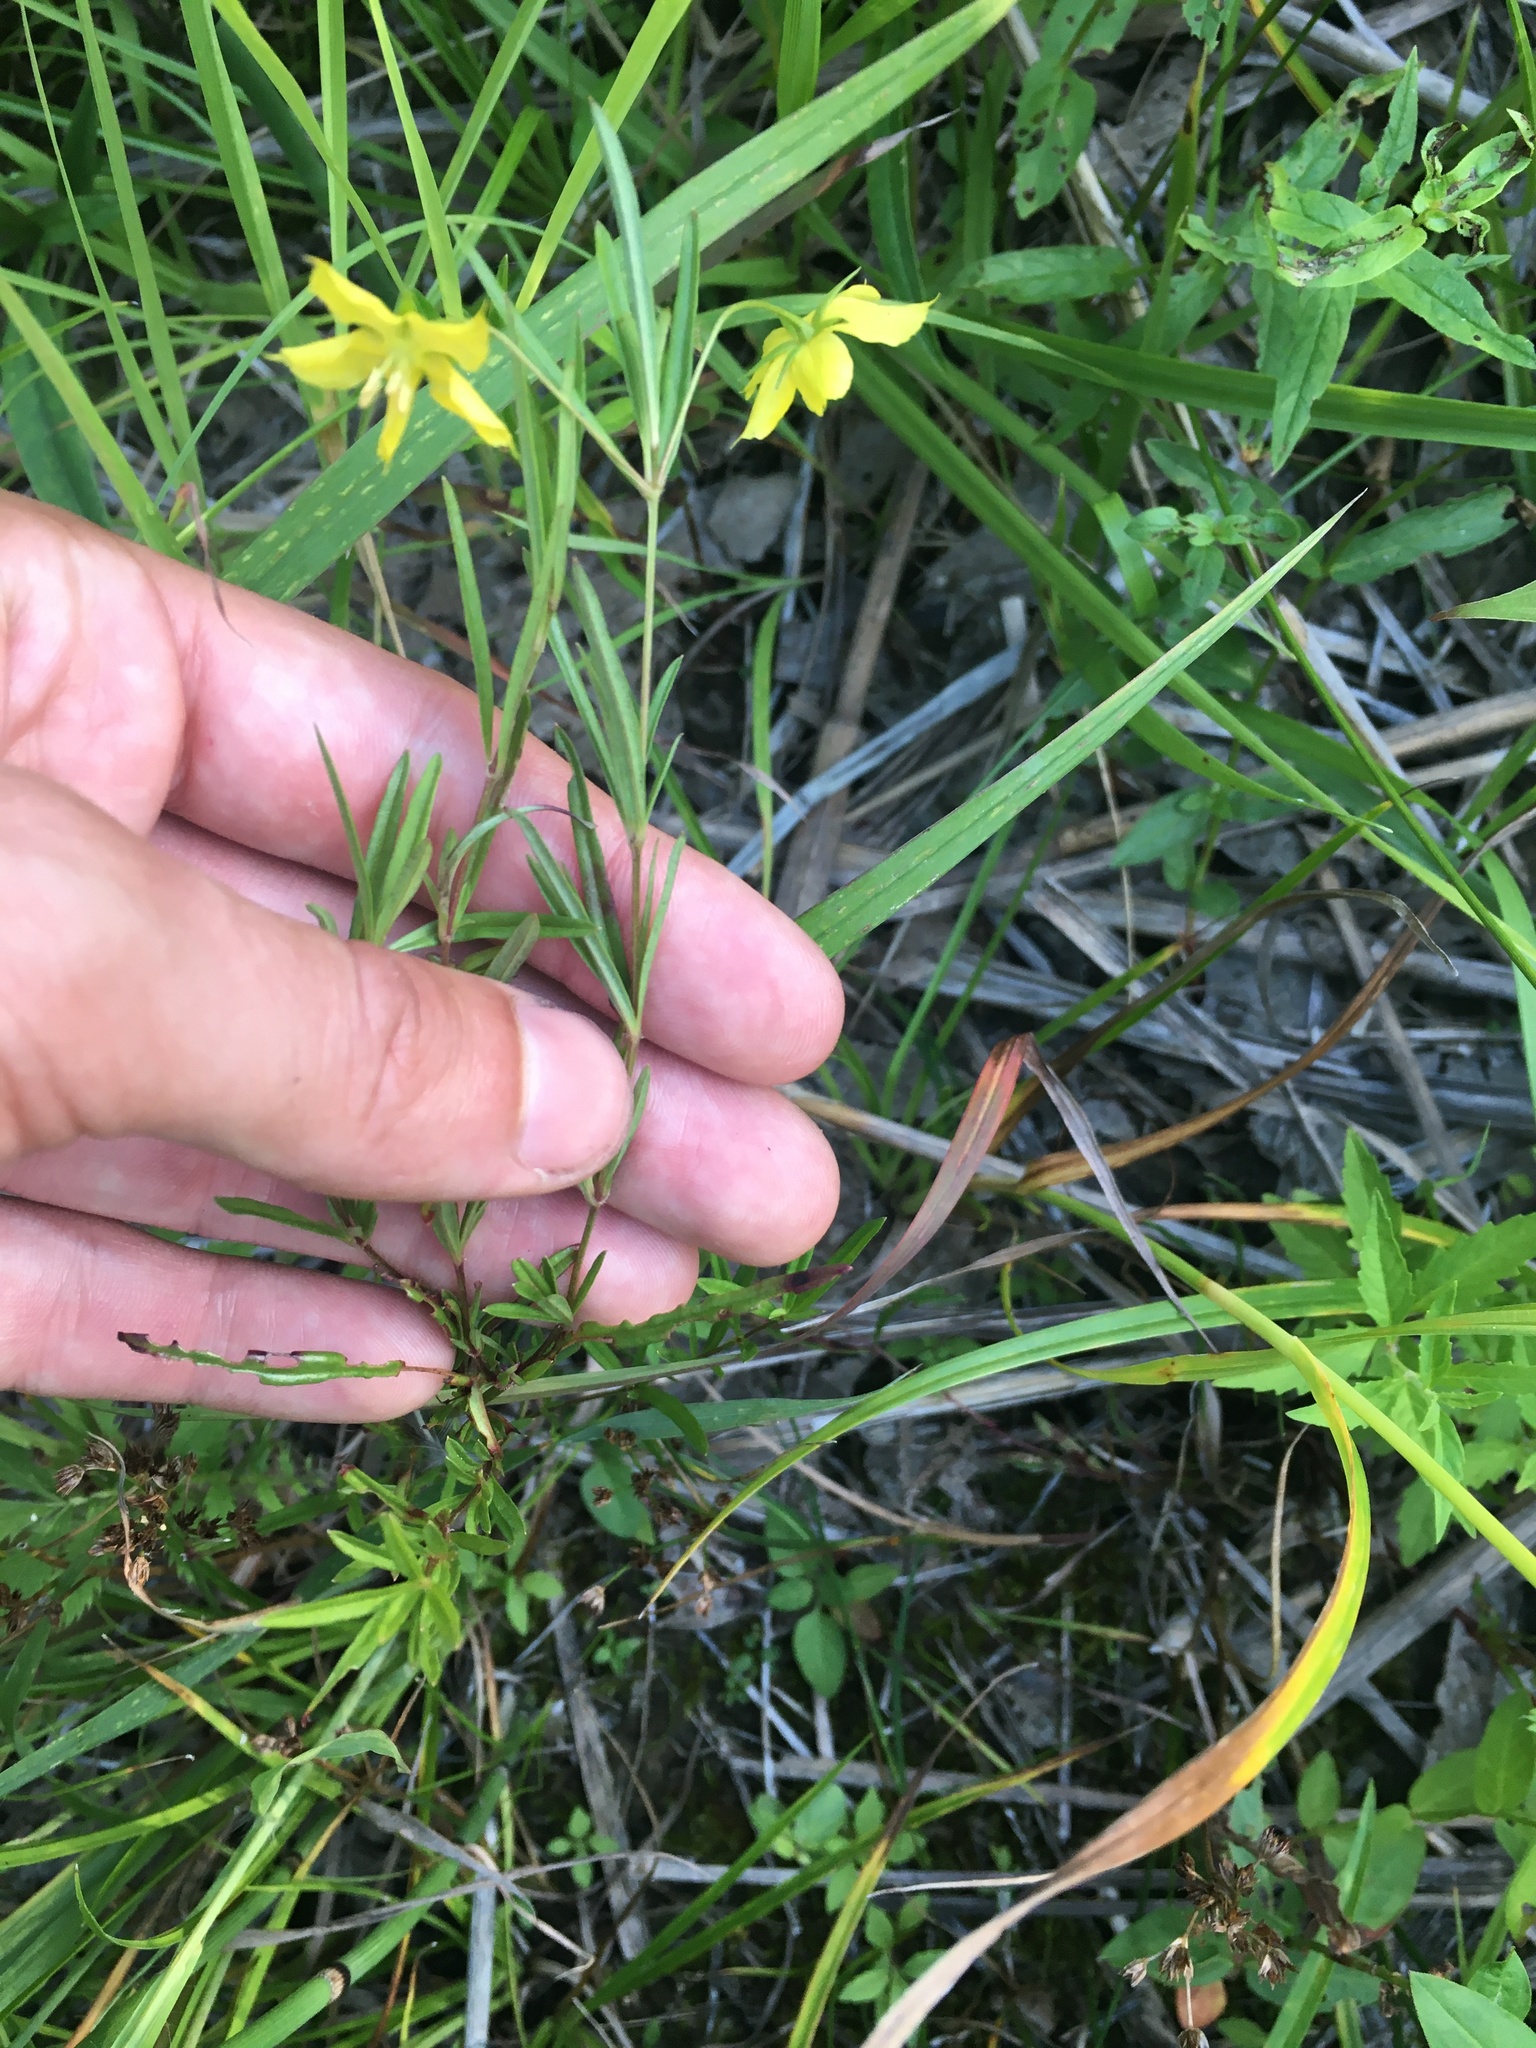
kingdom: Plantae
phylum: Tracheophyta
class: Magnoliopsida
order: Ericales
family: Primulaceae
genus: Lysimachia
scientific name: Lysimachia quadriflora
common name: Four-flowered loosestrife
